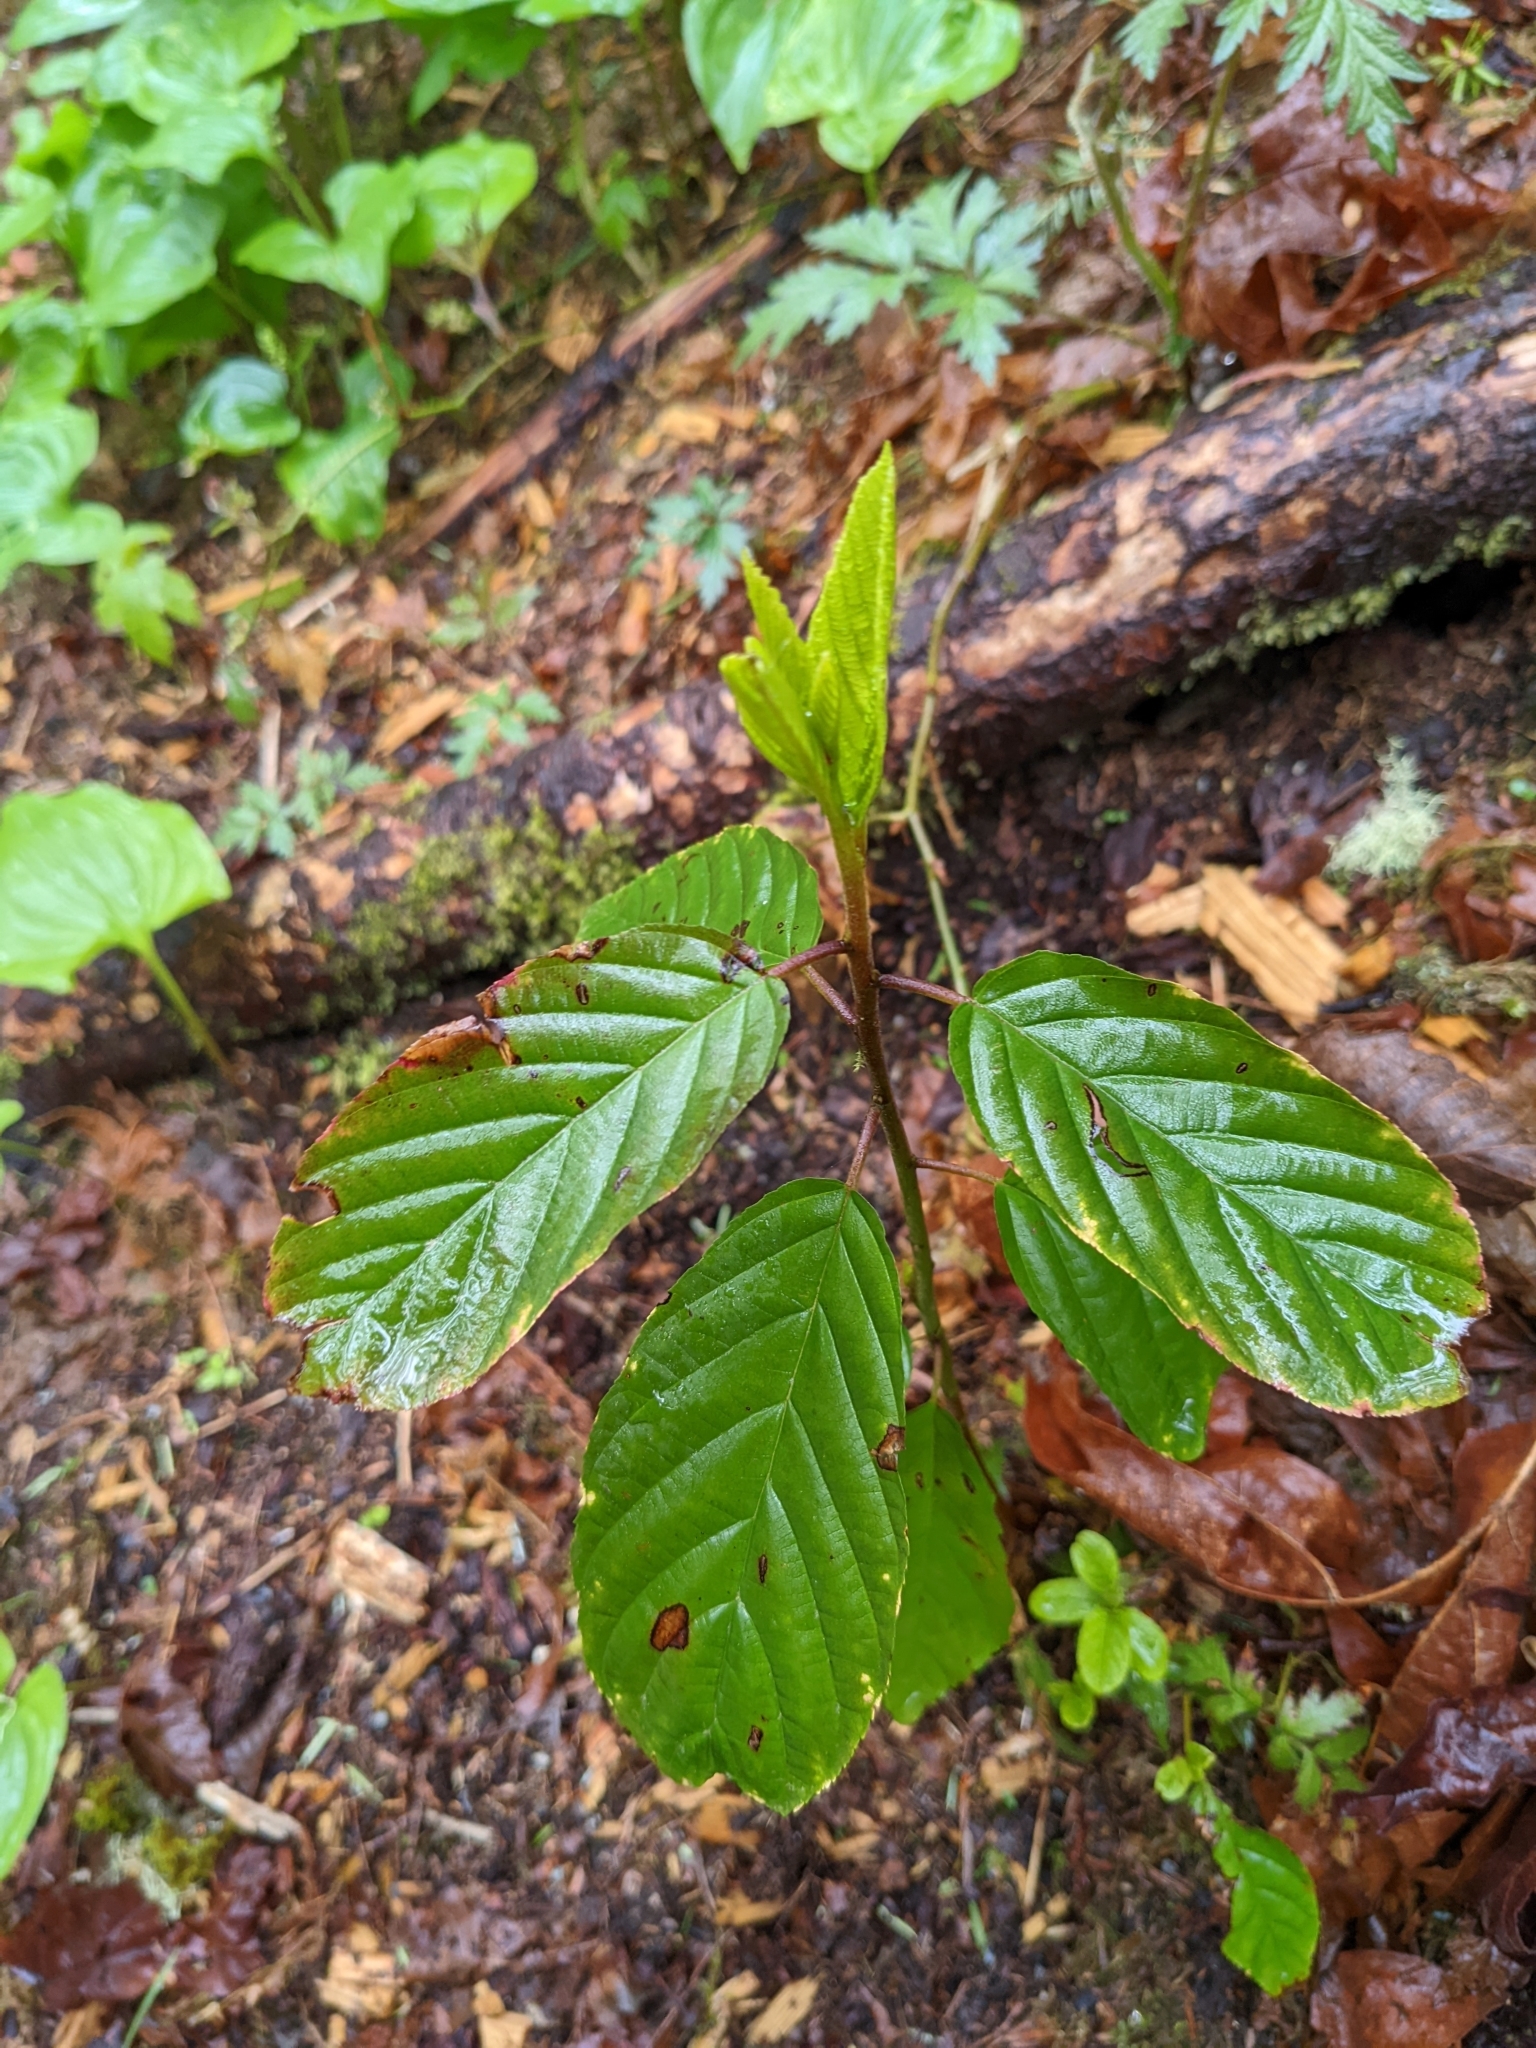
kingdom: Plantae
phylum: Tracheophyta
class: Magnoliopsida
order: Rosales
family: Rhamnaceae
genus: Frangula
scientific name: Frangula purshiana
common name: Cascara buckthorn
